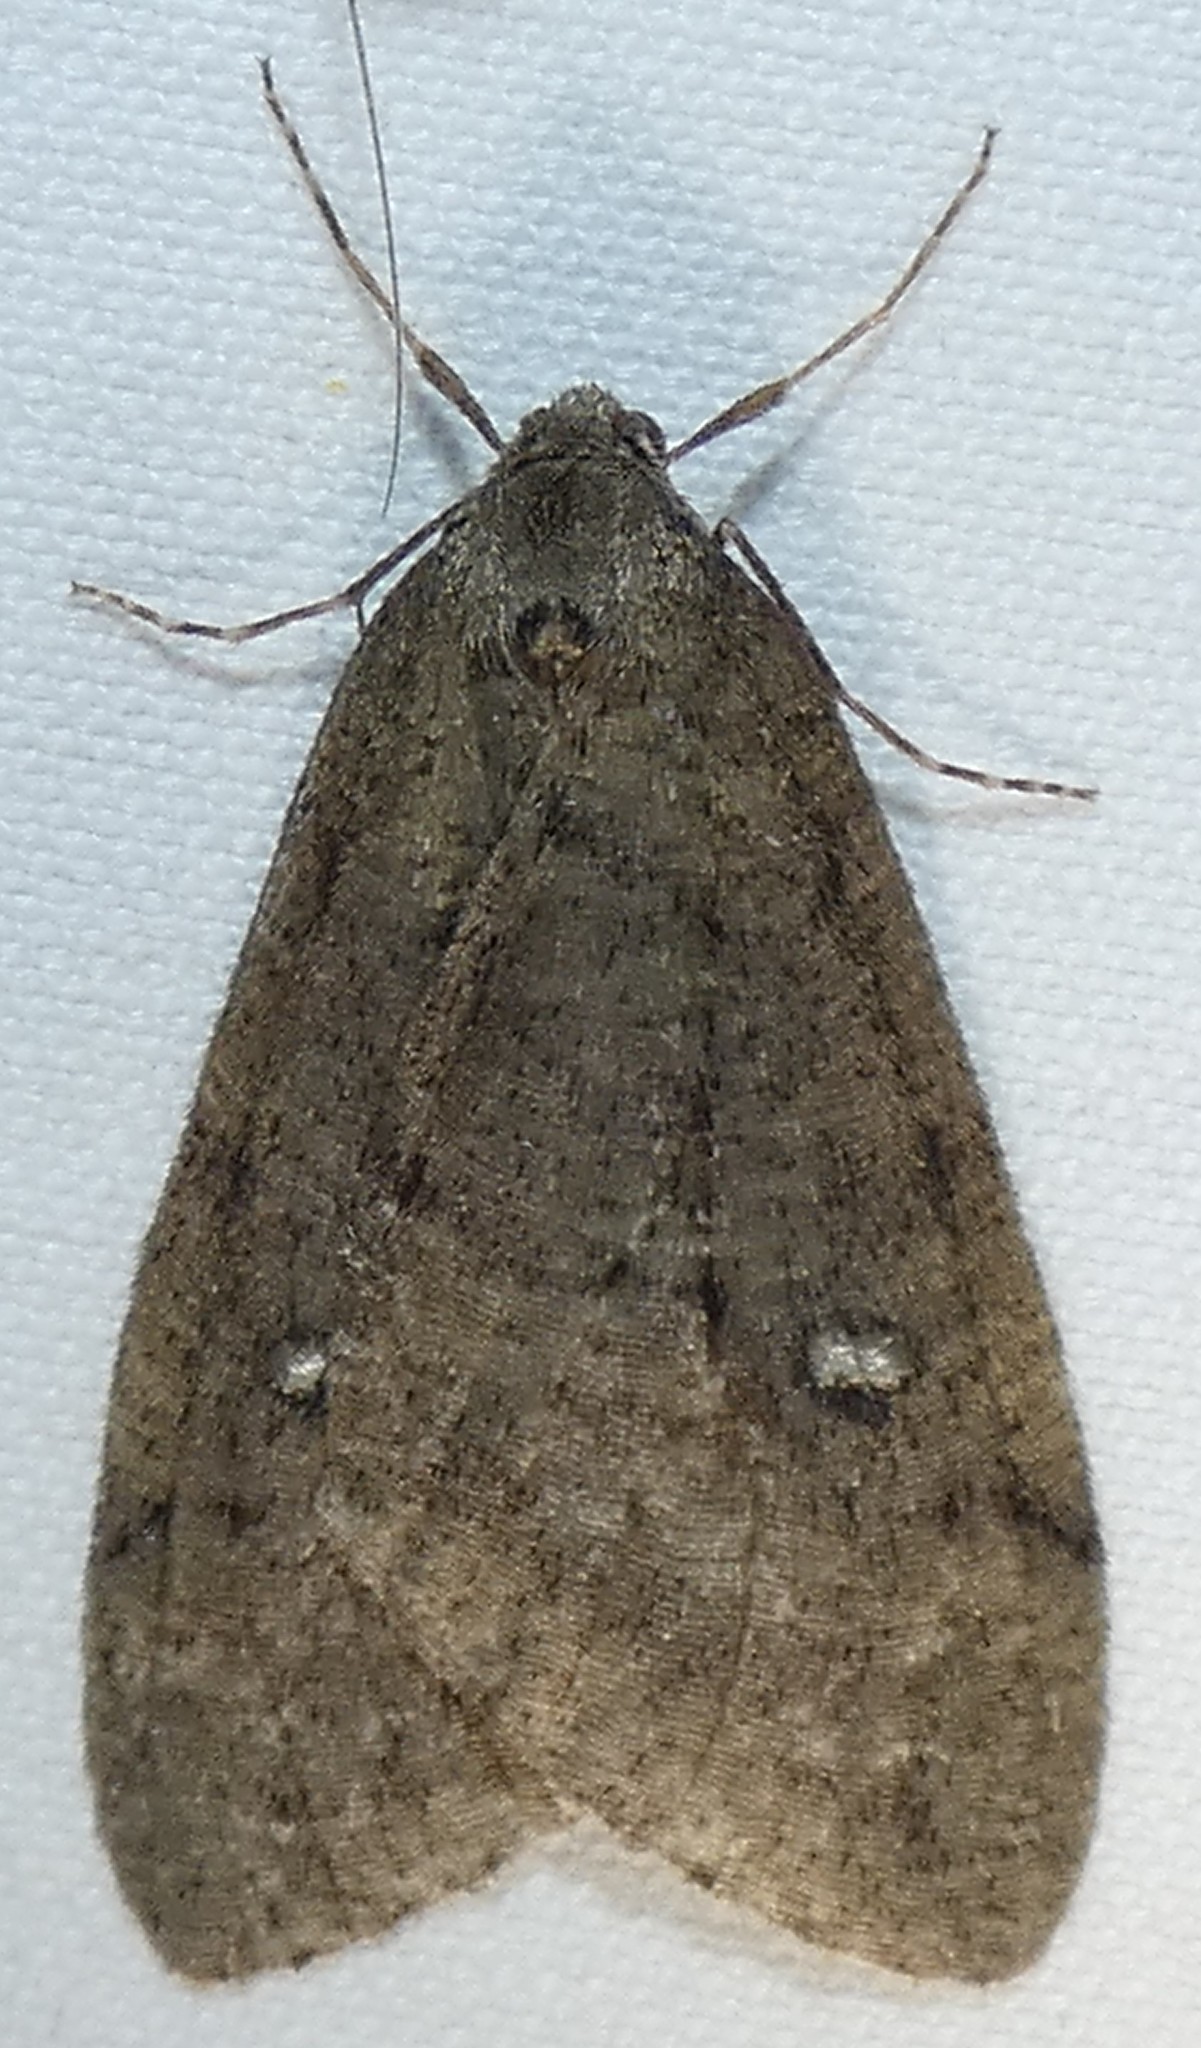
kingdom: Animalia
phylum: Arthropoda
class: Insecta
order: Lepidoptera
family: Geometridae
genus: Paleacrita
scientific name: Paleacrita merriccata
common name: White-spotted canker worm
